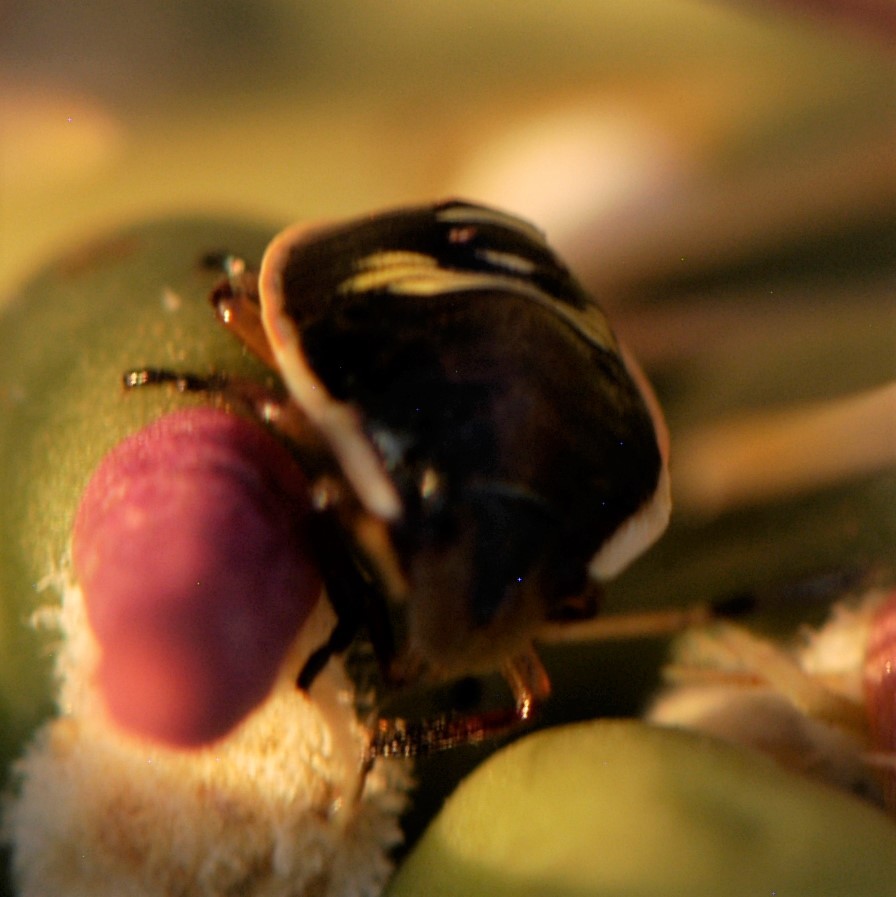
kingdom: Animalia
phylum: Arthropoda
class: Insecta
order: Hemiptera
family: Pentatomidae
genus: Chlorochroa
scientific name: Chlorochroa opuntiae
